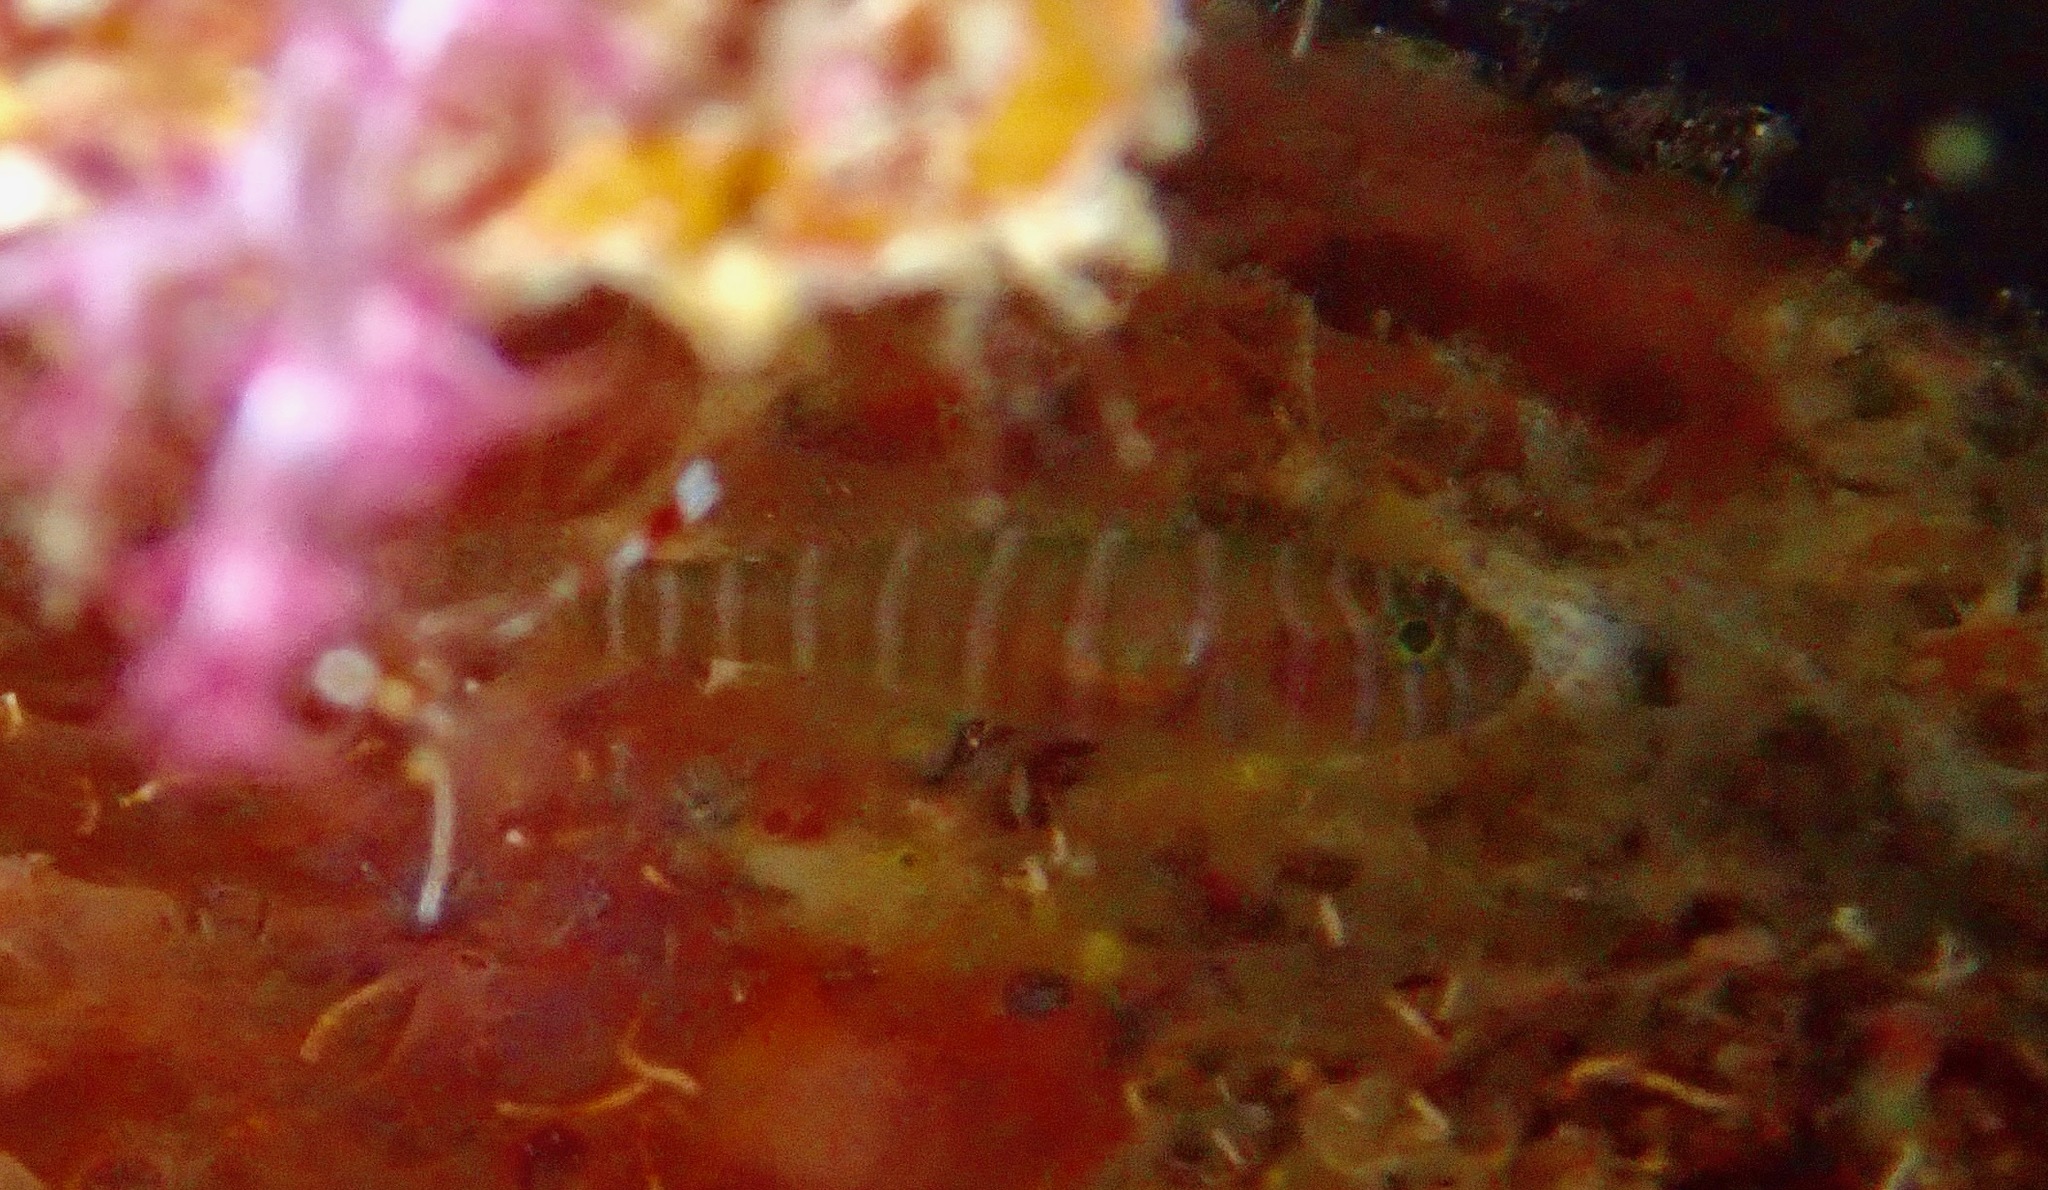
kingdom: Animalia
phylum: Chordata
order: Perciformes
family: Gobiidae
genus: Priolepis
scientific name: Priolepis cincta
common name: Banded reef-goby
